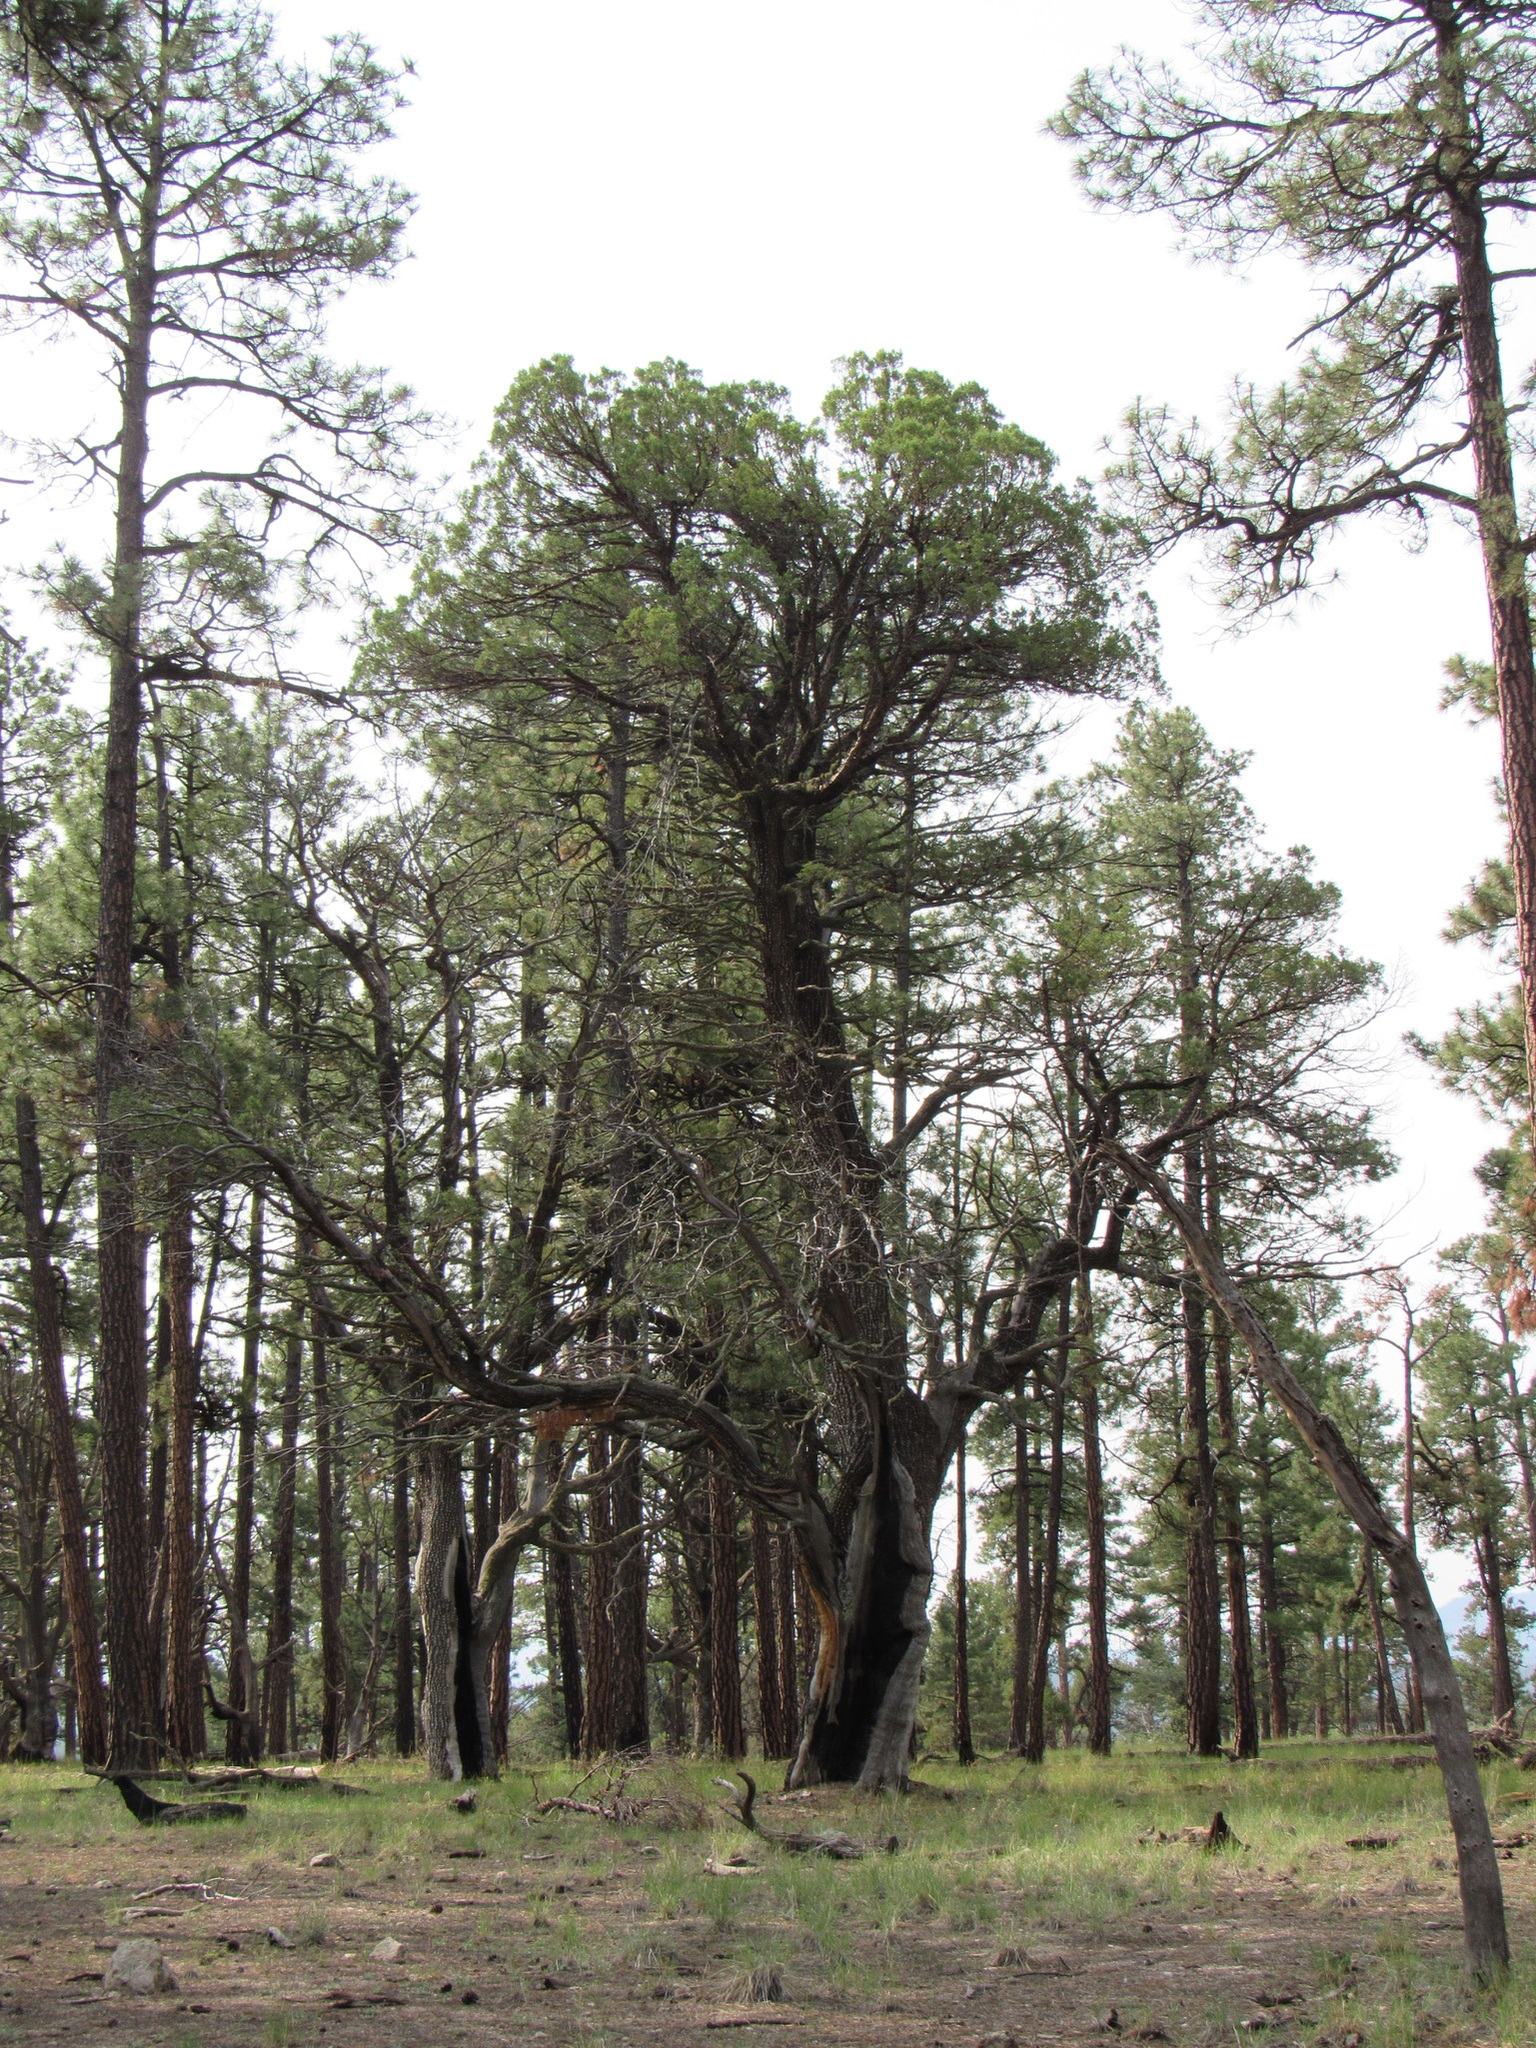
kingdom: Plantae
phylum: Tracheophyta
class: Pinopsida
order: Pinales
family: Cupressaceae
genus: Juniperus
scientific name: Juniperus deppeana
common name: Alligator juniper
